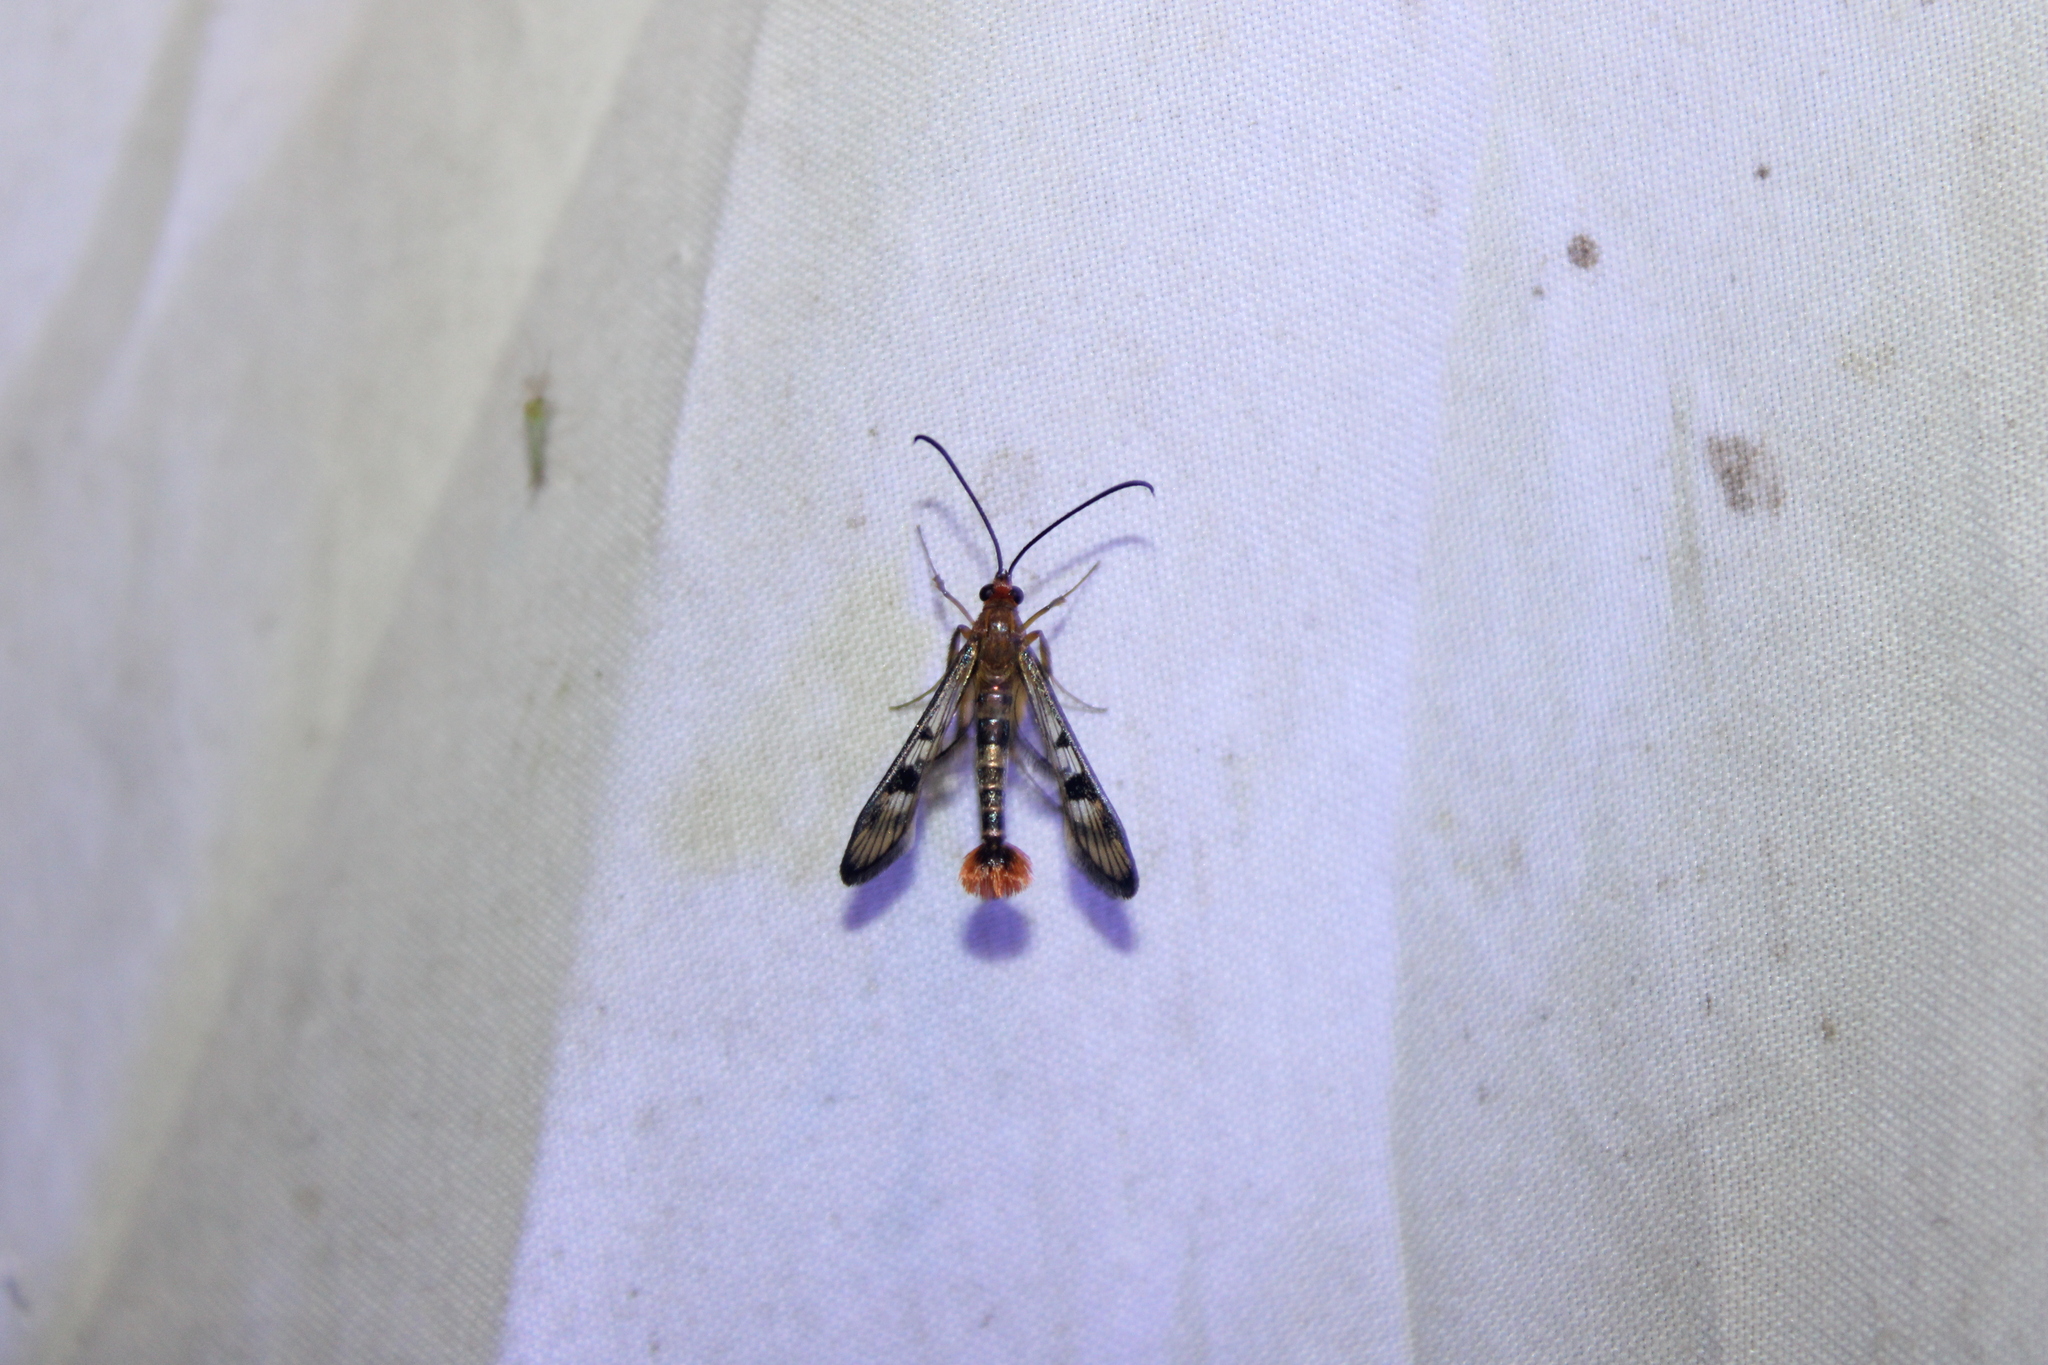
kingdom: Animalia
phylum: Arthropoda
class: Insecta
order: Lepidoptera
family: Sesiidae
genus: Synanthedon
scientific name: Synanthedon acerni
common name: Maple callus borer moth
